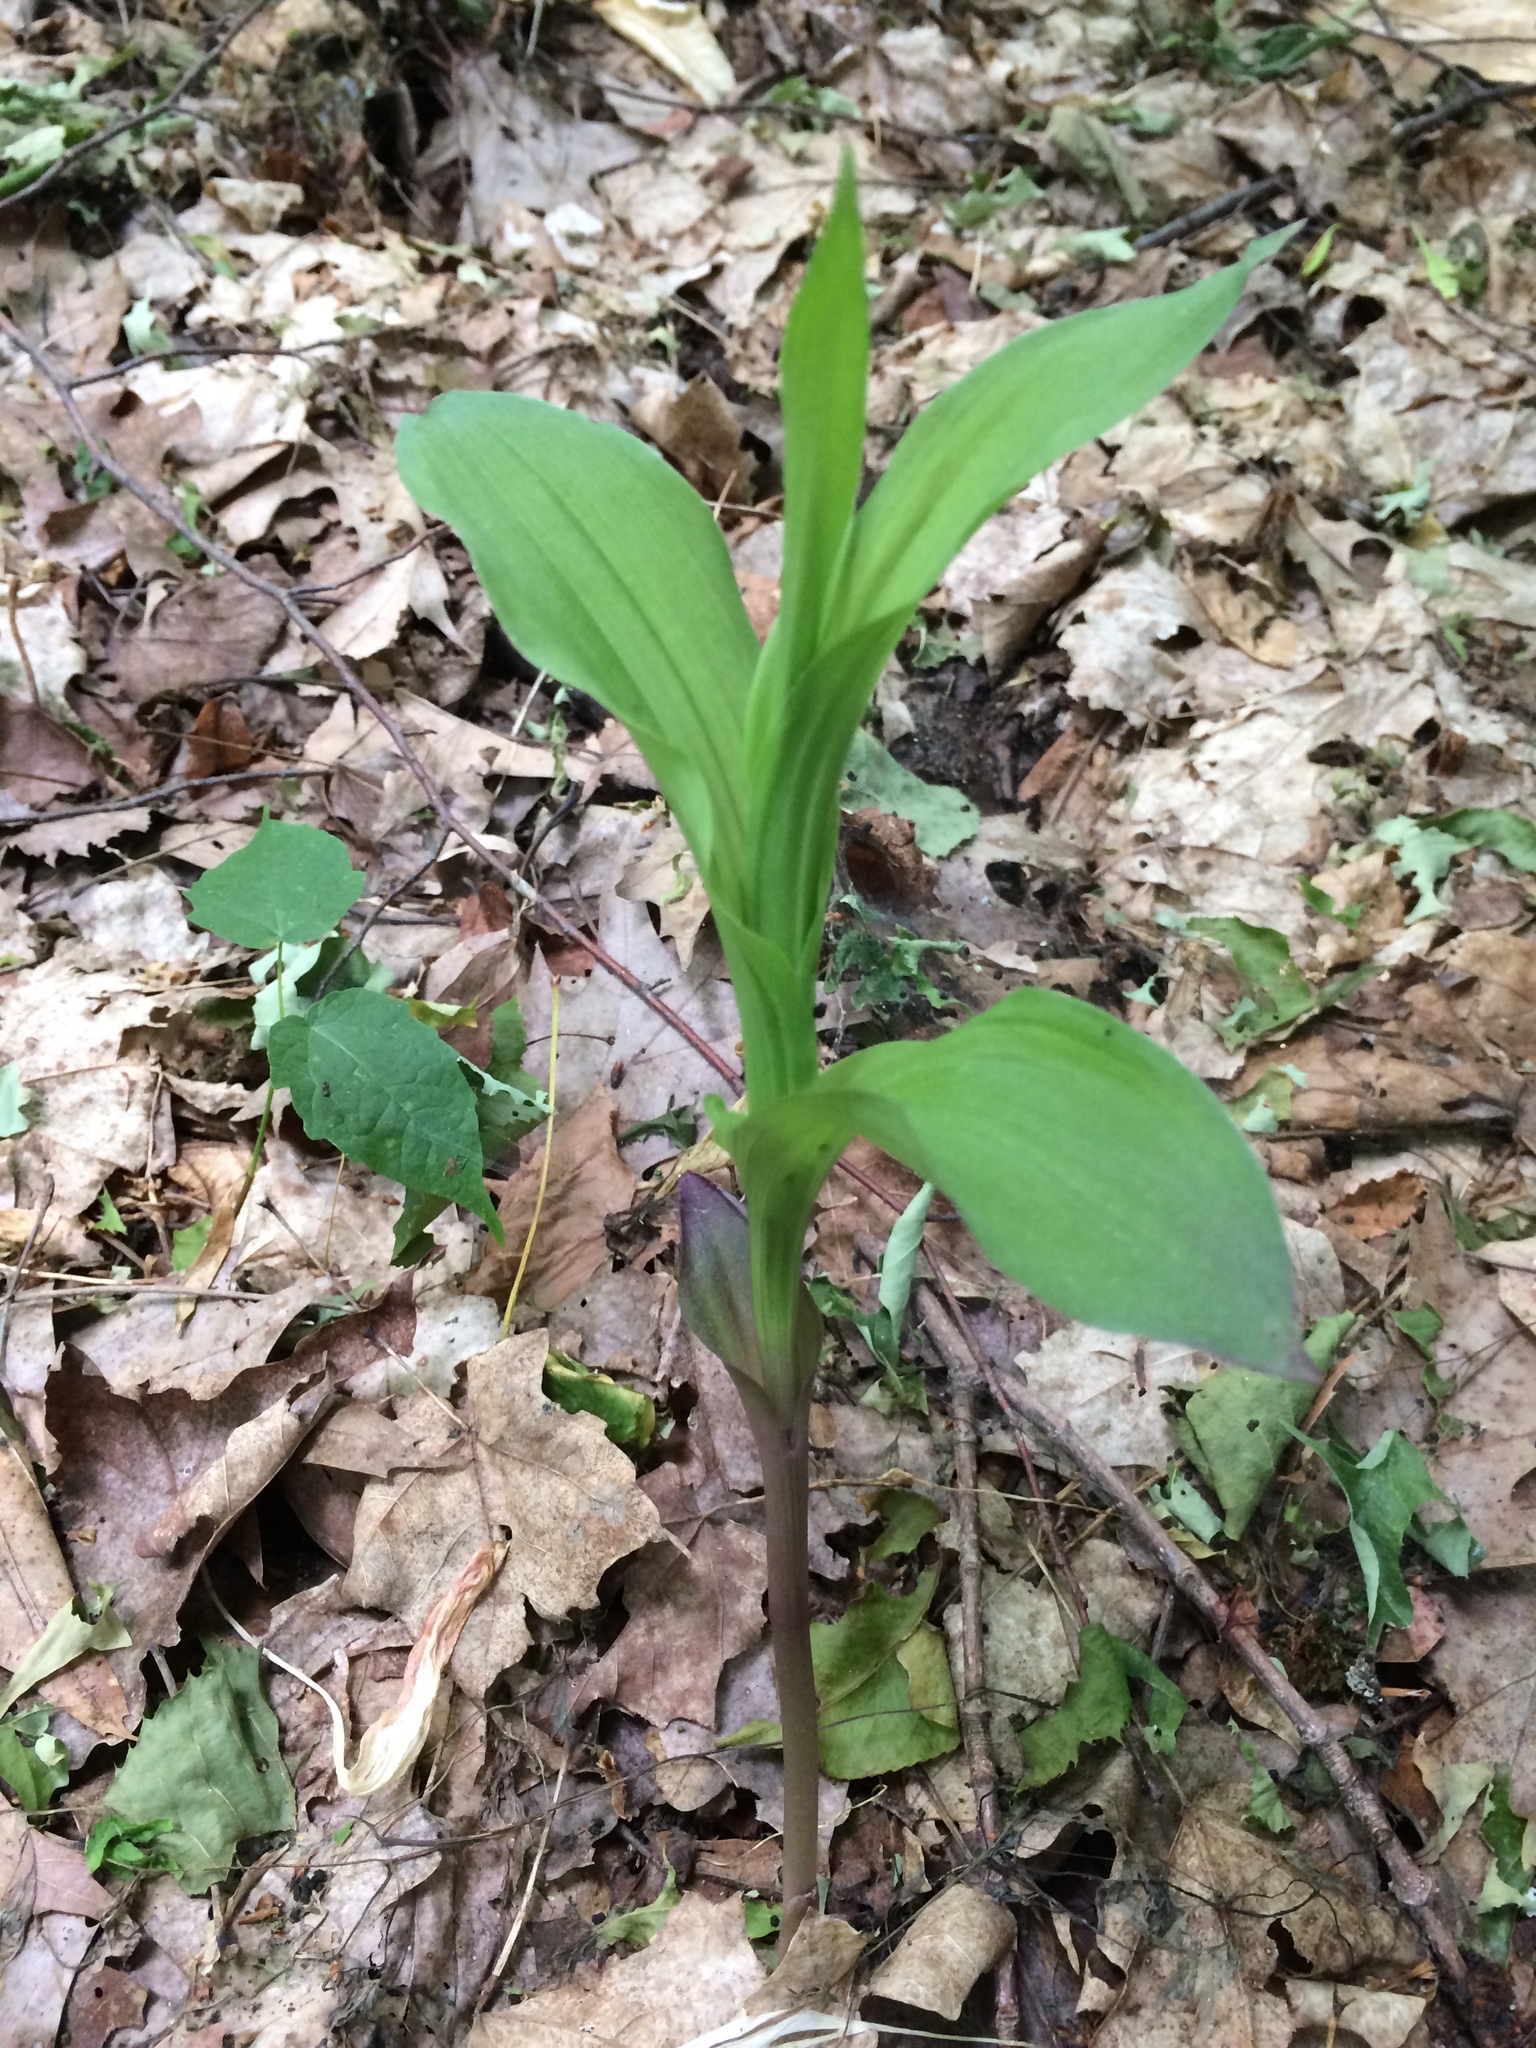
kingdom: Plantae
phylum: Tracheophyta
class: Liliopsida
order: Asparagales
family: Orchidaceae
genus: Epipactis
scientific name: Epipactis helleborine
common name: Broad-leaved helleborine
